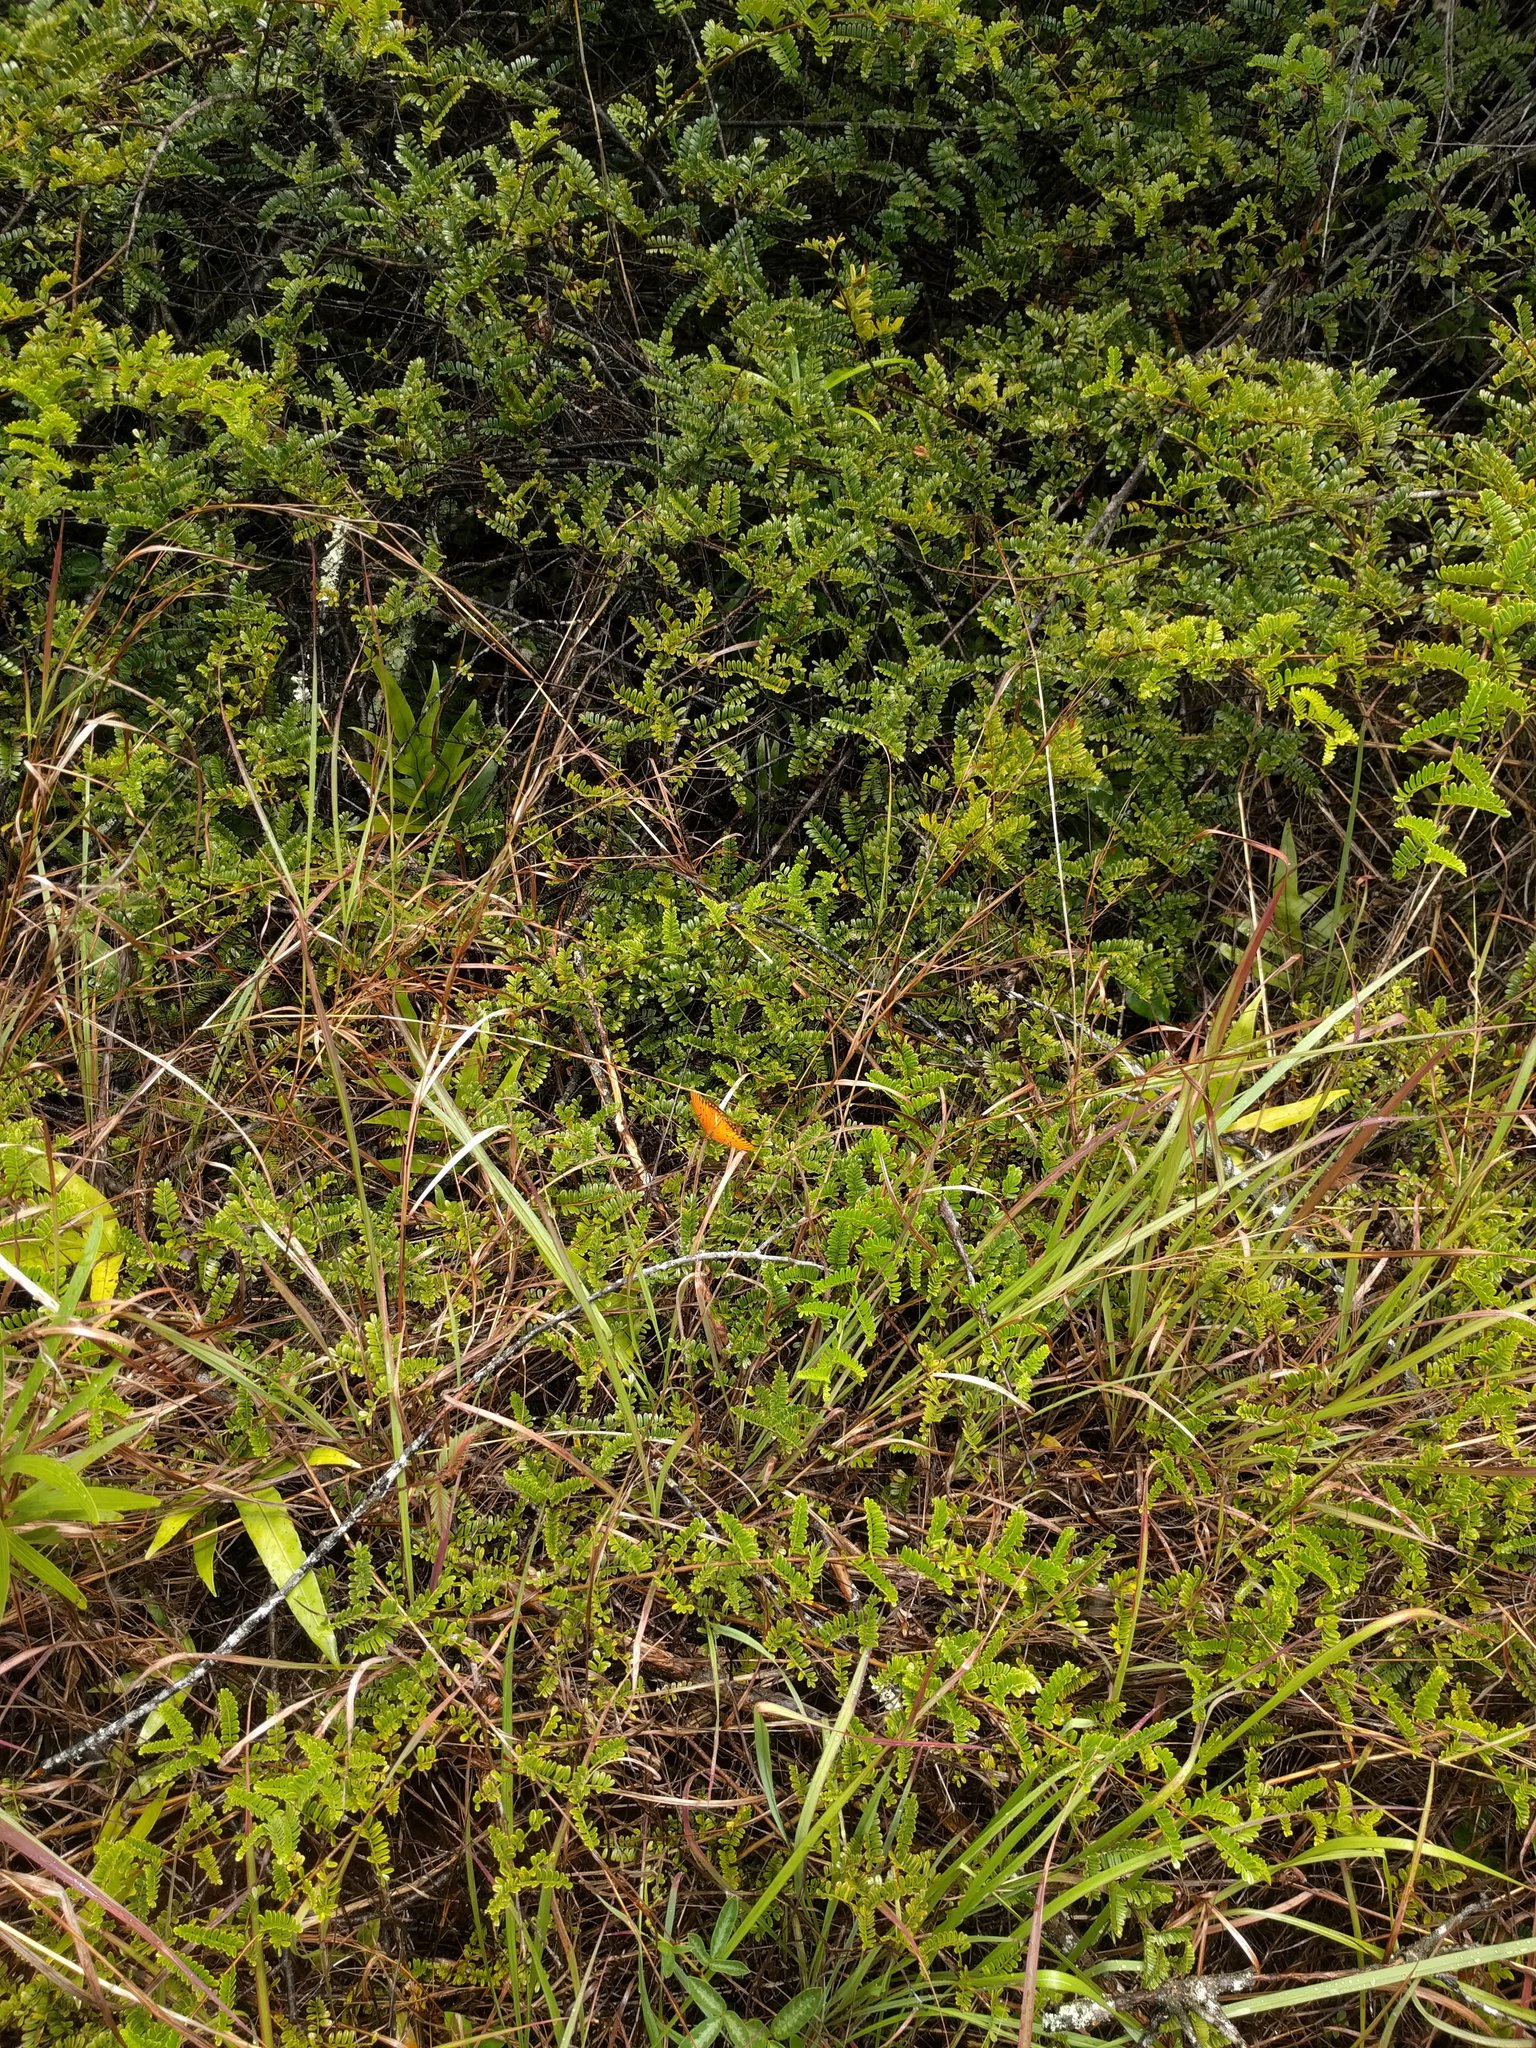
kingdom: Plantae
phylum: Tracheophyta
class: Magnoliopsida
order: Rosales
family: Rosaceae
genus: Osteomeles
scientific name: Osteomeles anthyllidifolia
